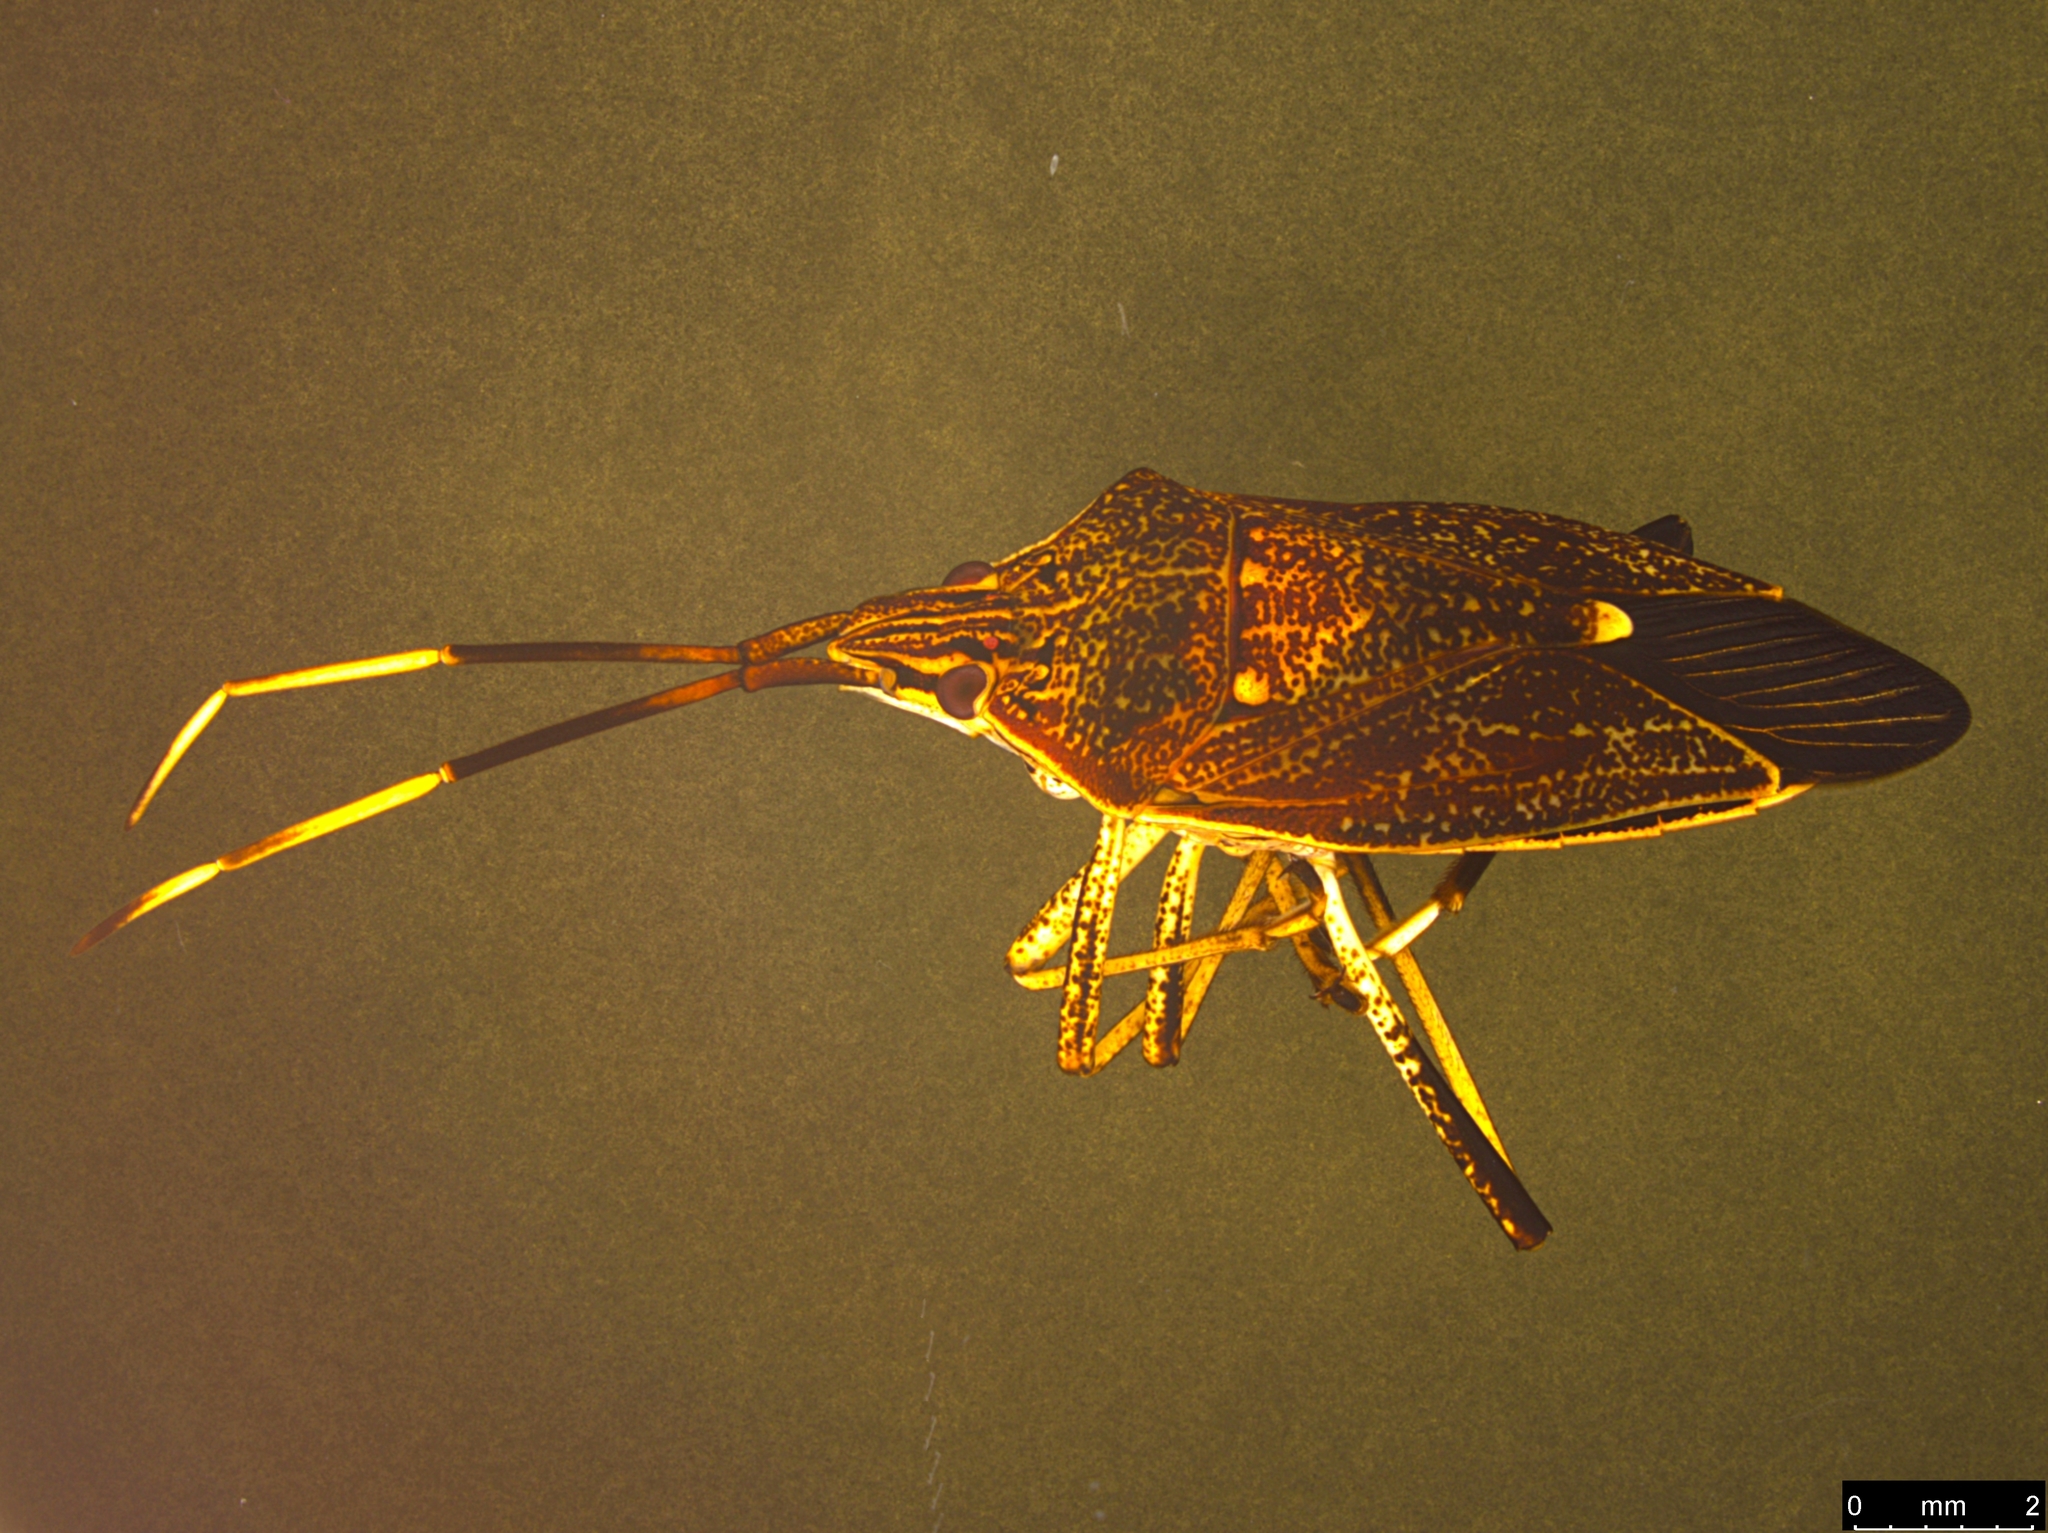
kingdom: Animalia
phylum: Arthropoda
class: Insecta
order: Hemiptera
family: Pentatomidae
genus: Poecilometis
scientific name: Poecilometis
